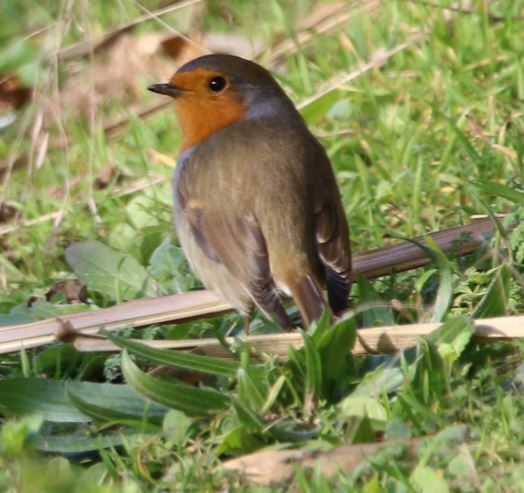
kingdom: Animalia
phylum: Chordata
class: Aves
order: Passeriformes
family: Muscicapidae
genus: Erithacus
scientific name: Erithacus rubecula
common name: European robin
